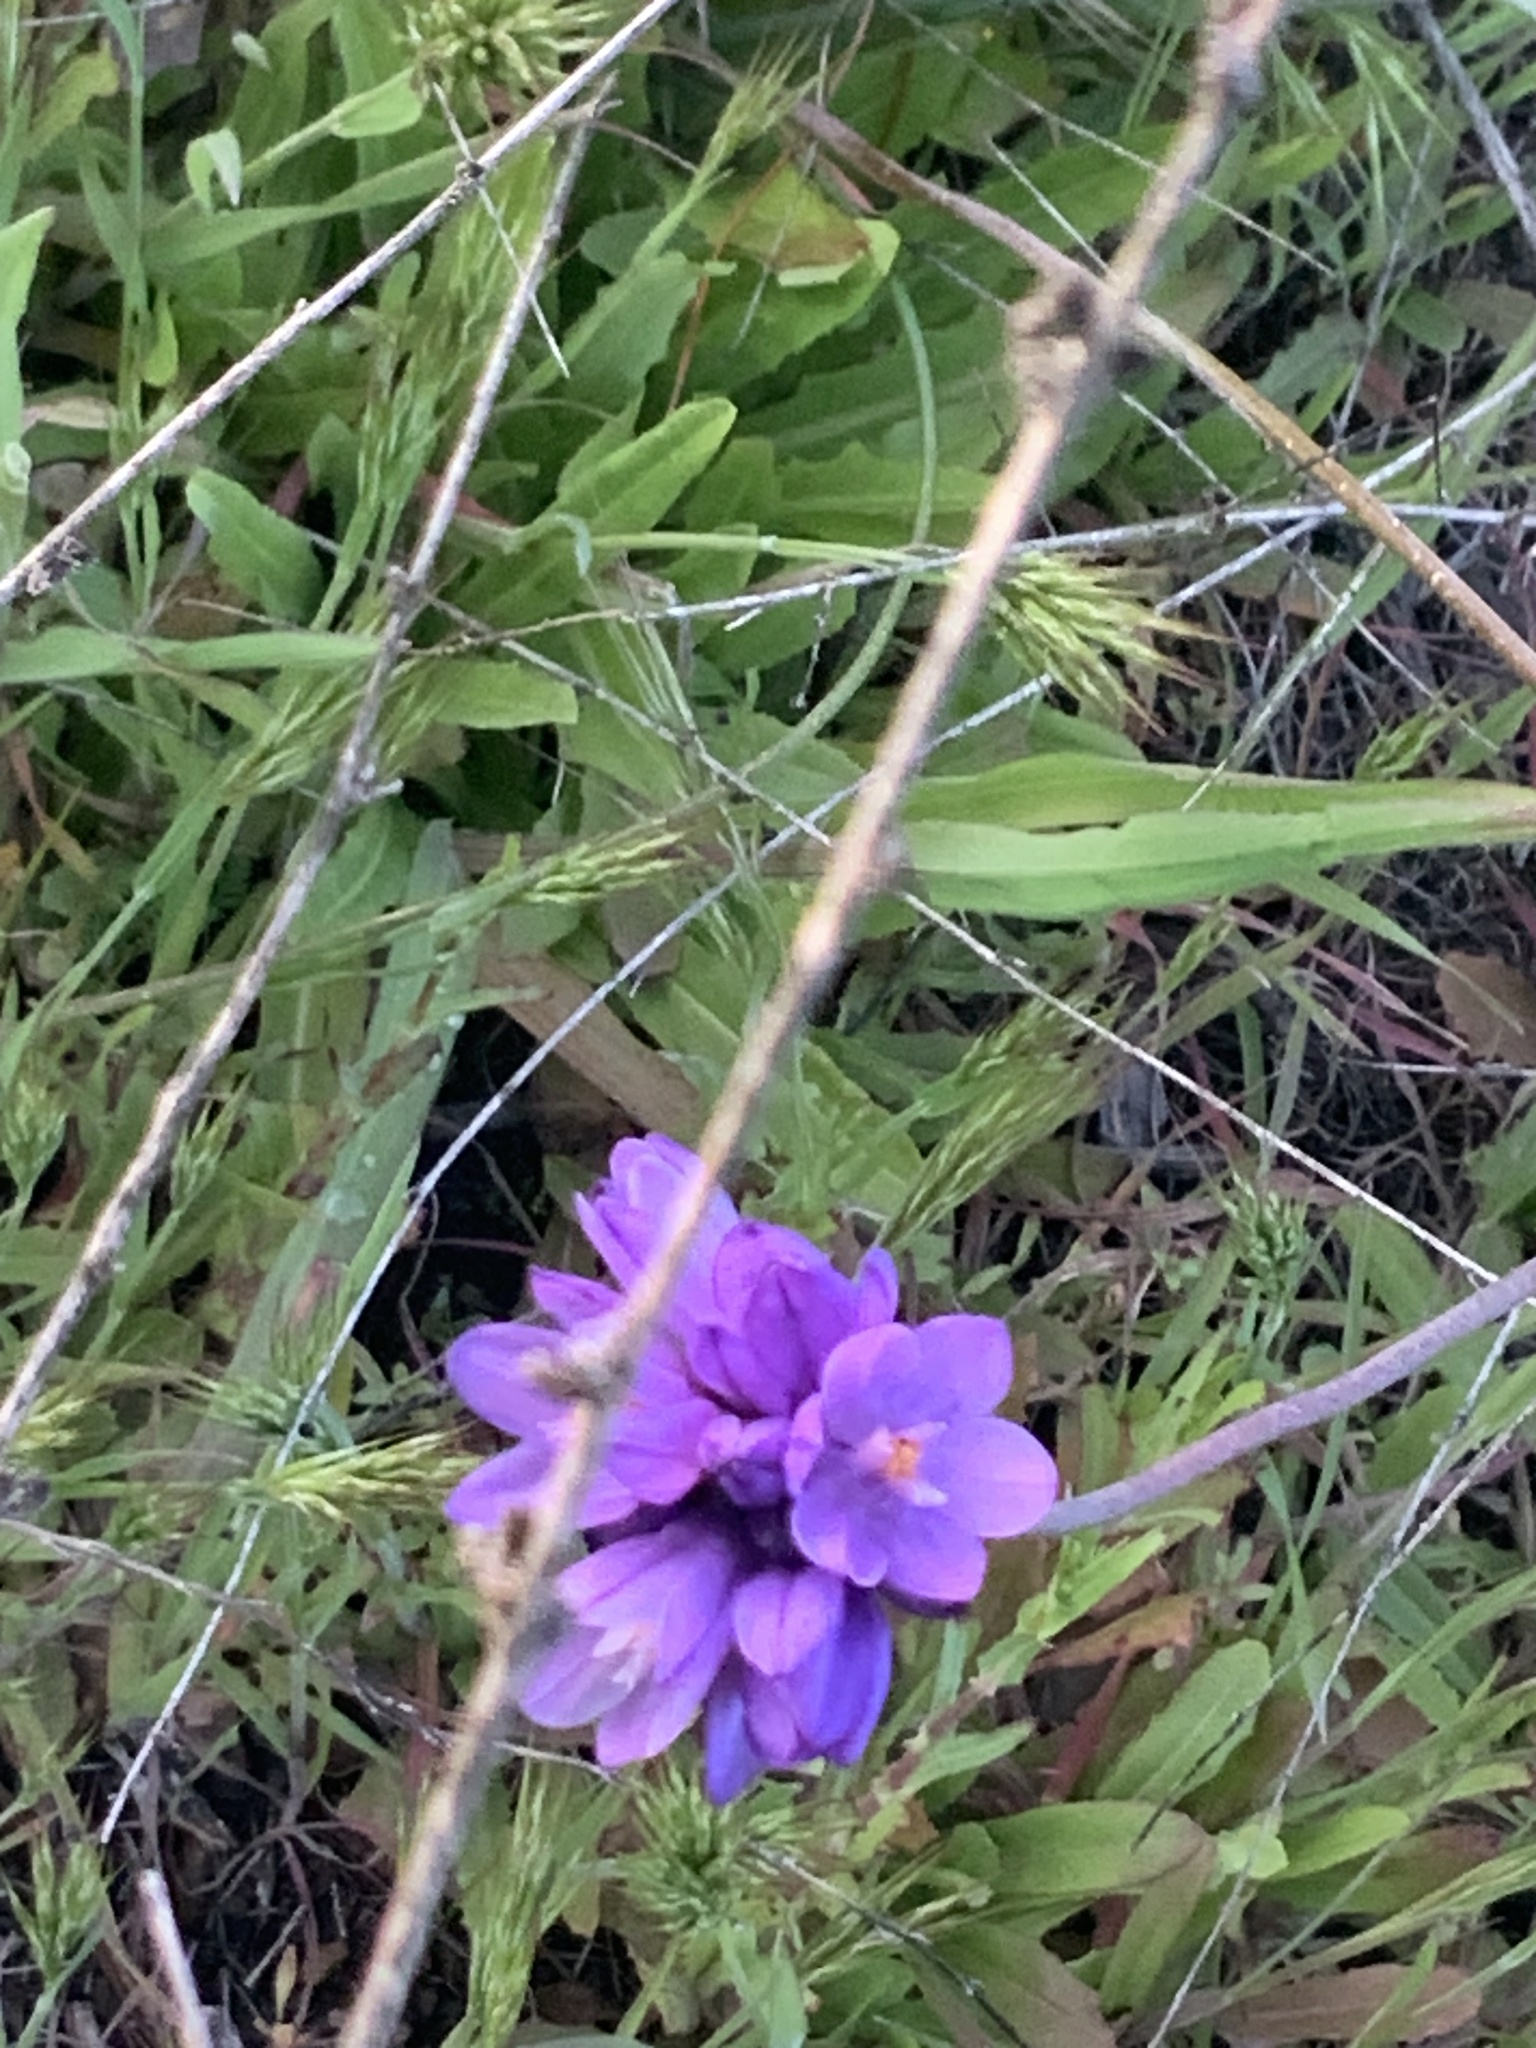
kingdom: Plantae
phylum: Tracheophyta
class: Liliopsida
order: Asparagales
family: Asparagaceae
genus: Dipterostemon
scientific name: Dipterostemon capitatus
